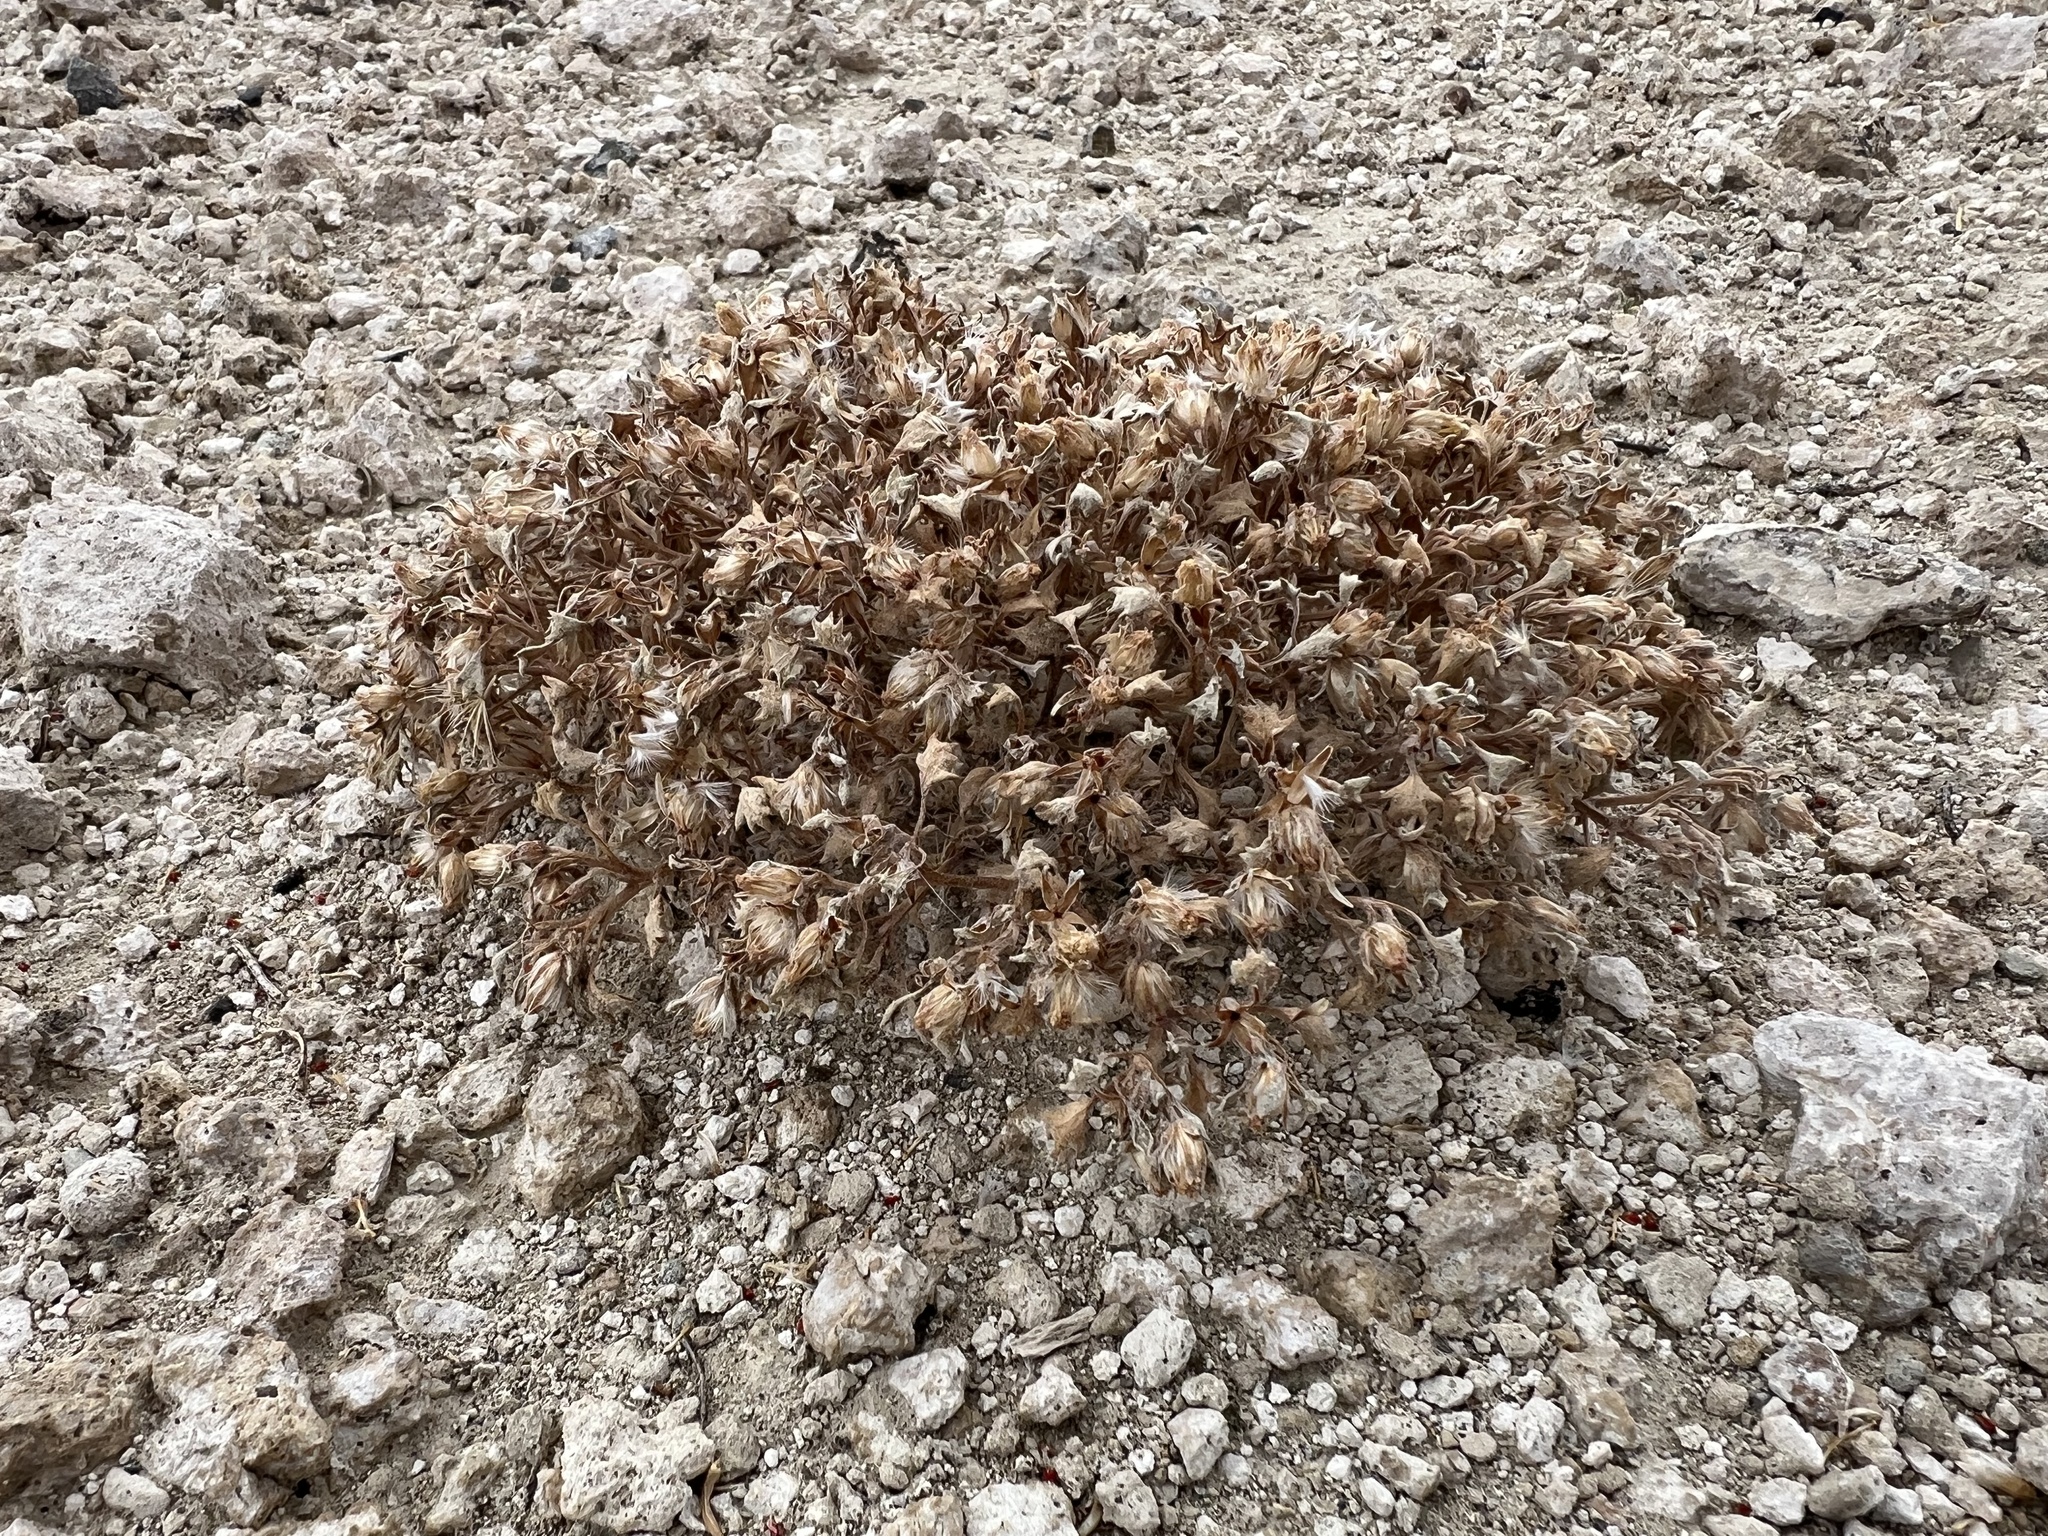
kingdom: Plantae
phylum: Tracheophyta
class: Magnoliopsida
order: Asterales
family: Asteraceae
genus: Psathyrotes
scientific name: Psathyrotes annua
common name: Mealy rosettes
